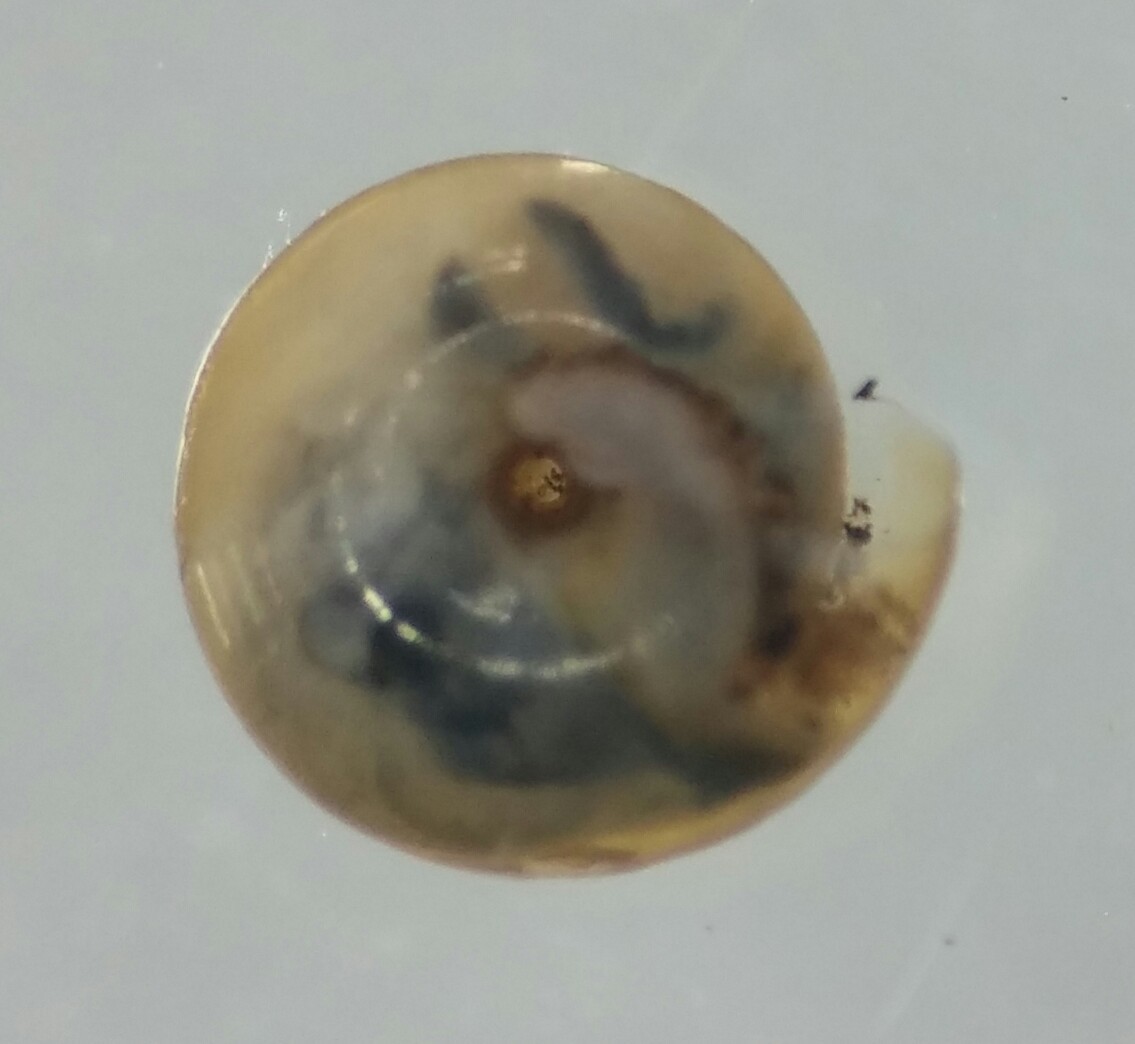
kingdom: Animalia
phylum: Mollusca
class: Gastropoda
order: Stylommatophora
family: Pristilomatidae
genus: Pristiloma
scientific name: Pristiloma chersinella
